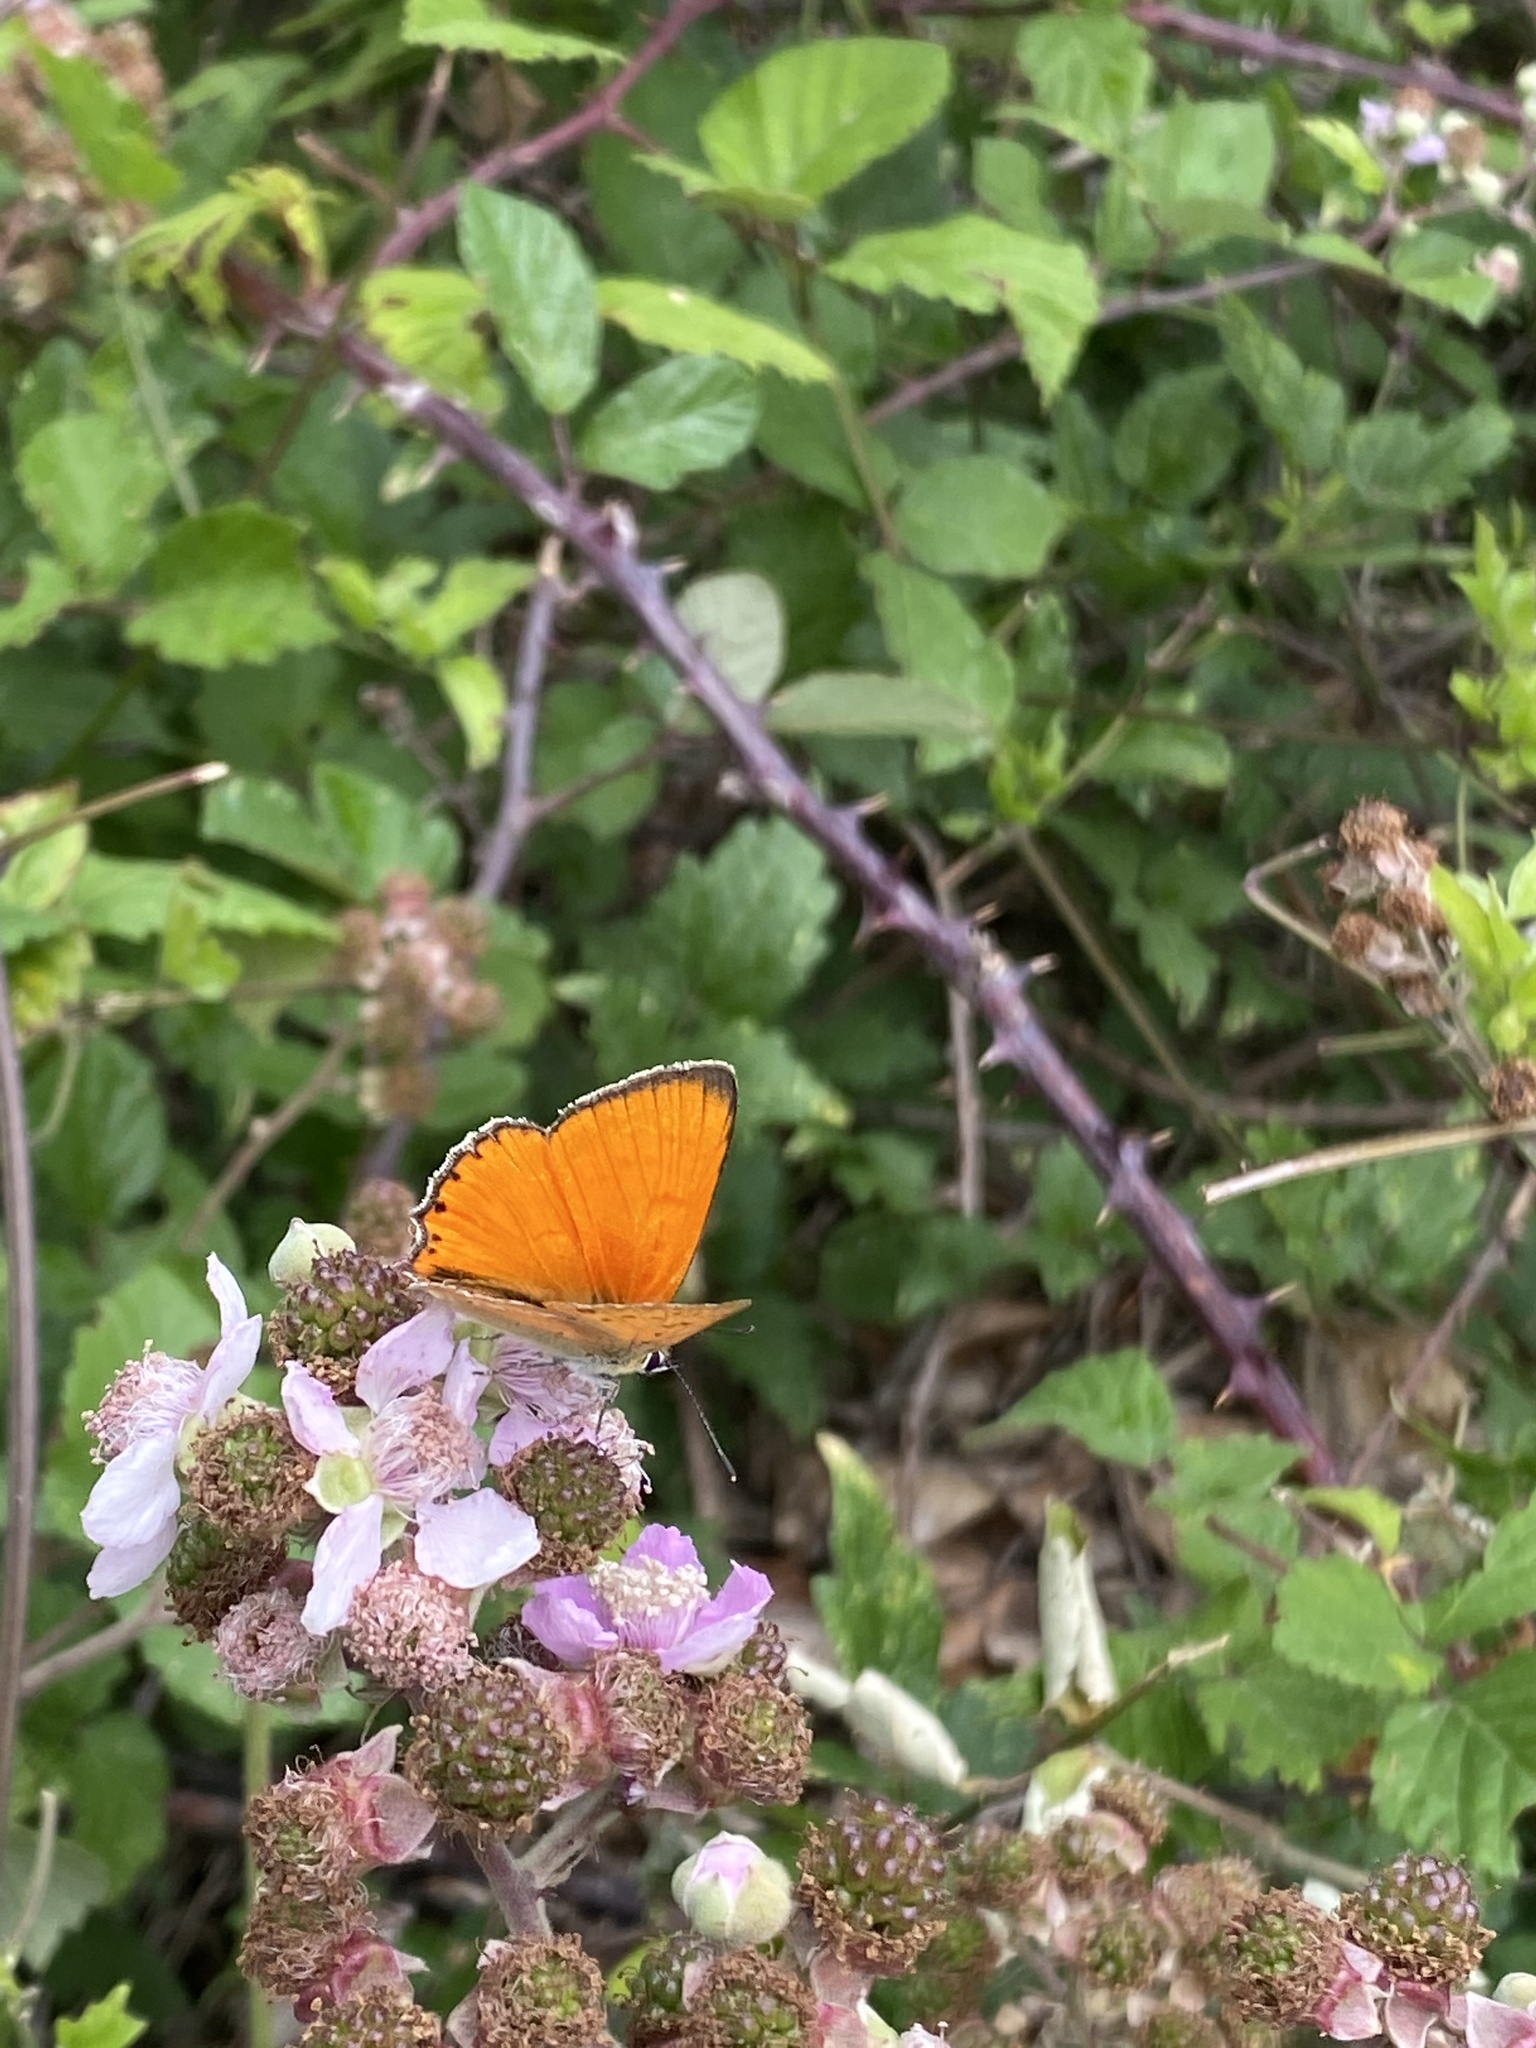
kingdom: Animalia
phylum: Arthropoda
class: Insecta
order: Lepidoptera
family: Lycaenidae
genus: Lycaena
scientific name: Lycaena virgaureae
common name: Scarce copper
